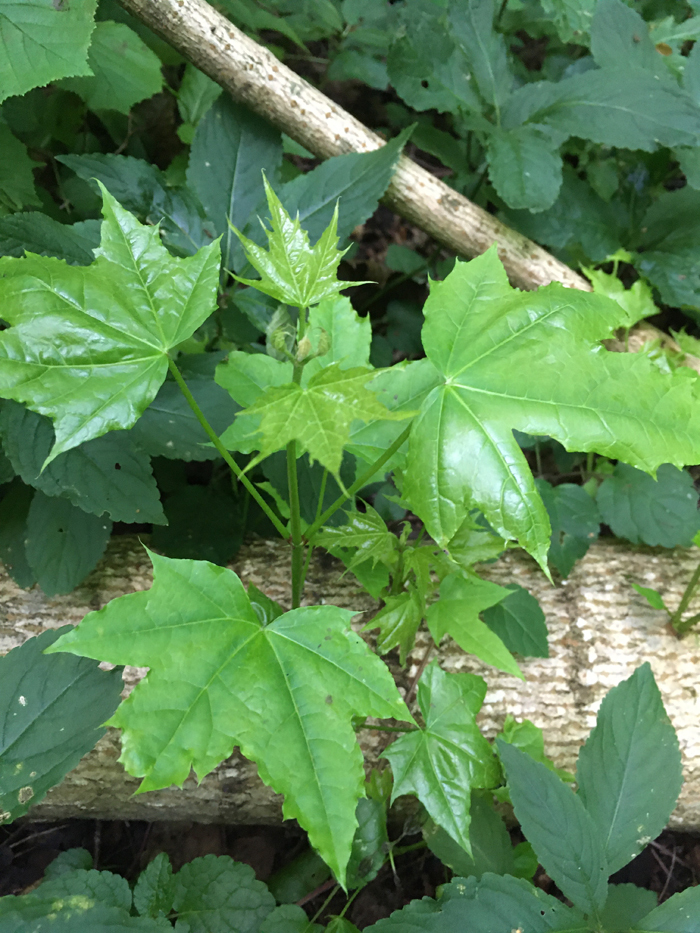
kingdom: Plantae
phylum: Tracheophyta
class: Magnoliopsida
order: Sapindales
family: Sapindaceae
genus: Acer
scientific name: Acer platanoides
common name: Norway maple
